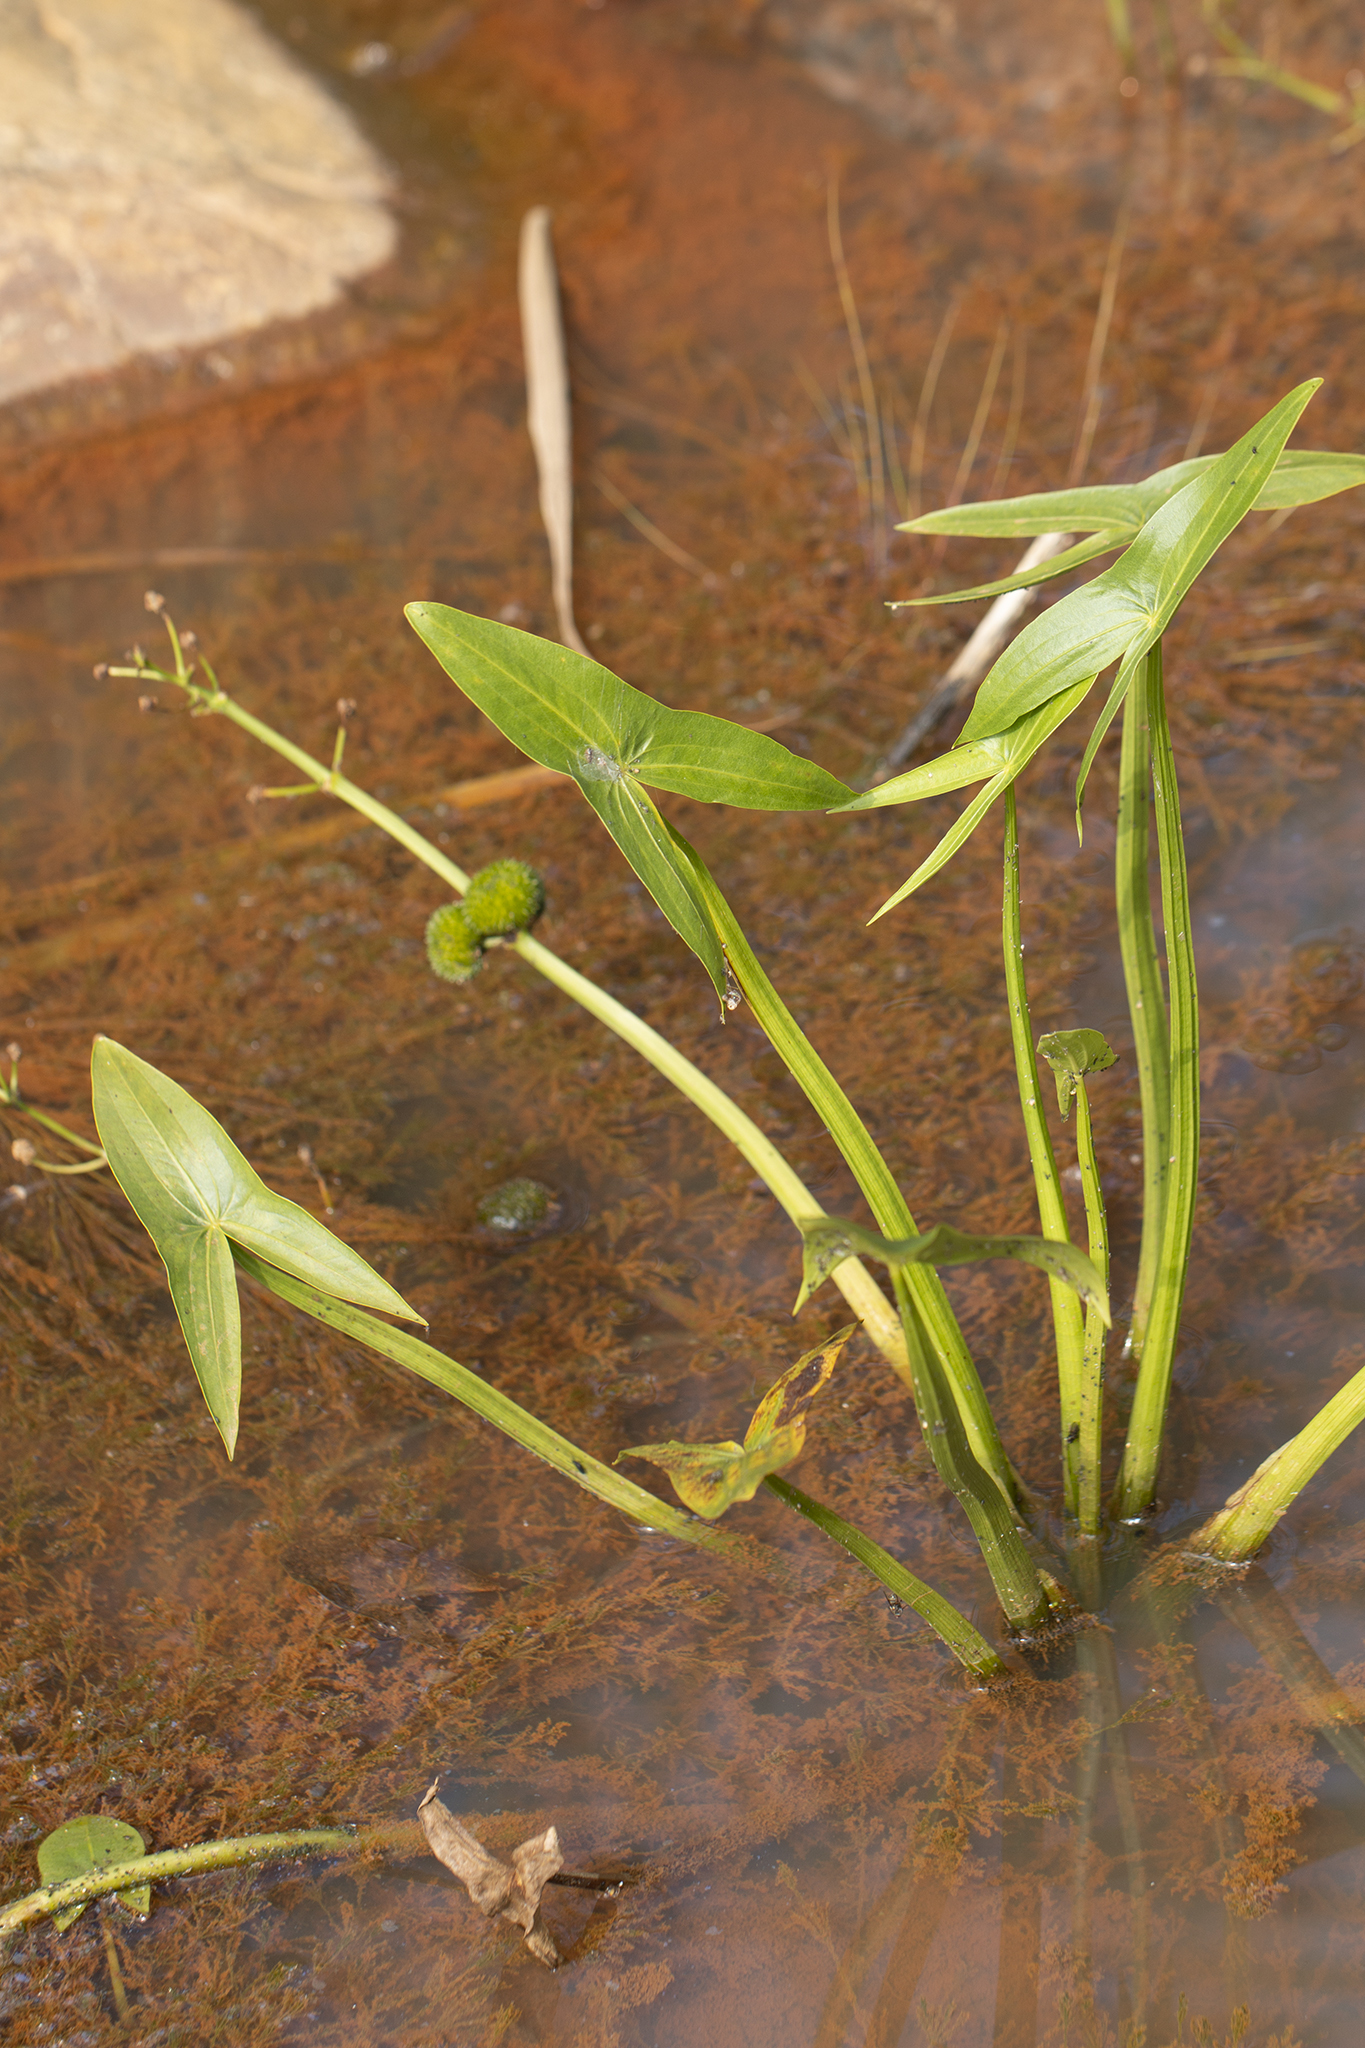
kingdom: Plantae
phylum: Tracheophyta
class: Liliopsida
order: Alismatales
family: Alismataceae
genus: Sagittaria
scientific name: Sagittaria sagittifolia
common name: Arrowhead
